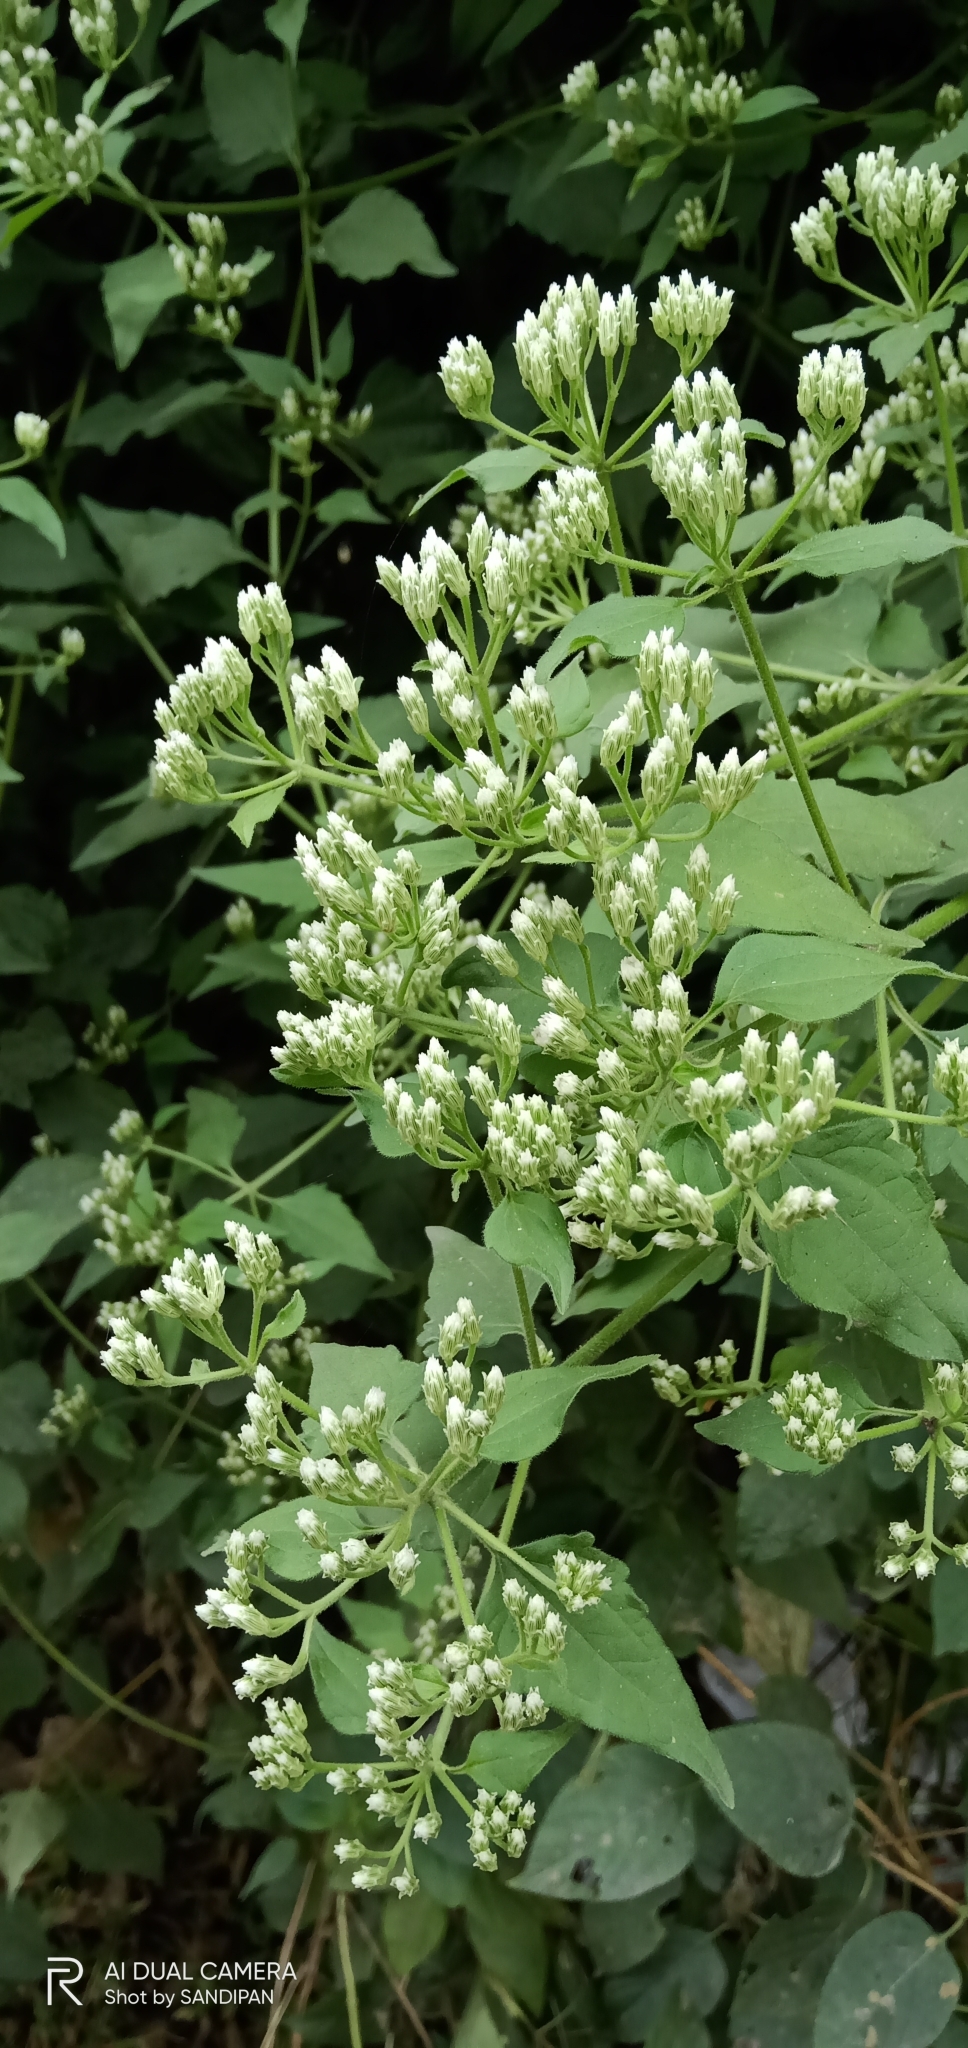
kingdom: Plantae
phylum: Tracheophyta
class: Magnoliopsida
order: Asterales
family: Asteraceae
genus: Chromolaena
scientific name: Chromolaena odorata
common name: Siamweed
